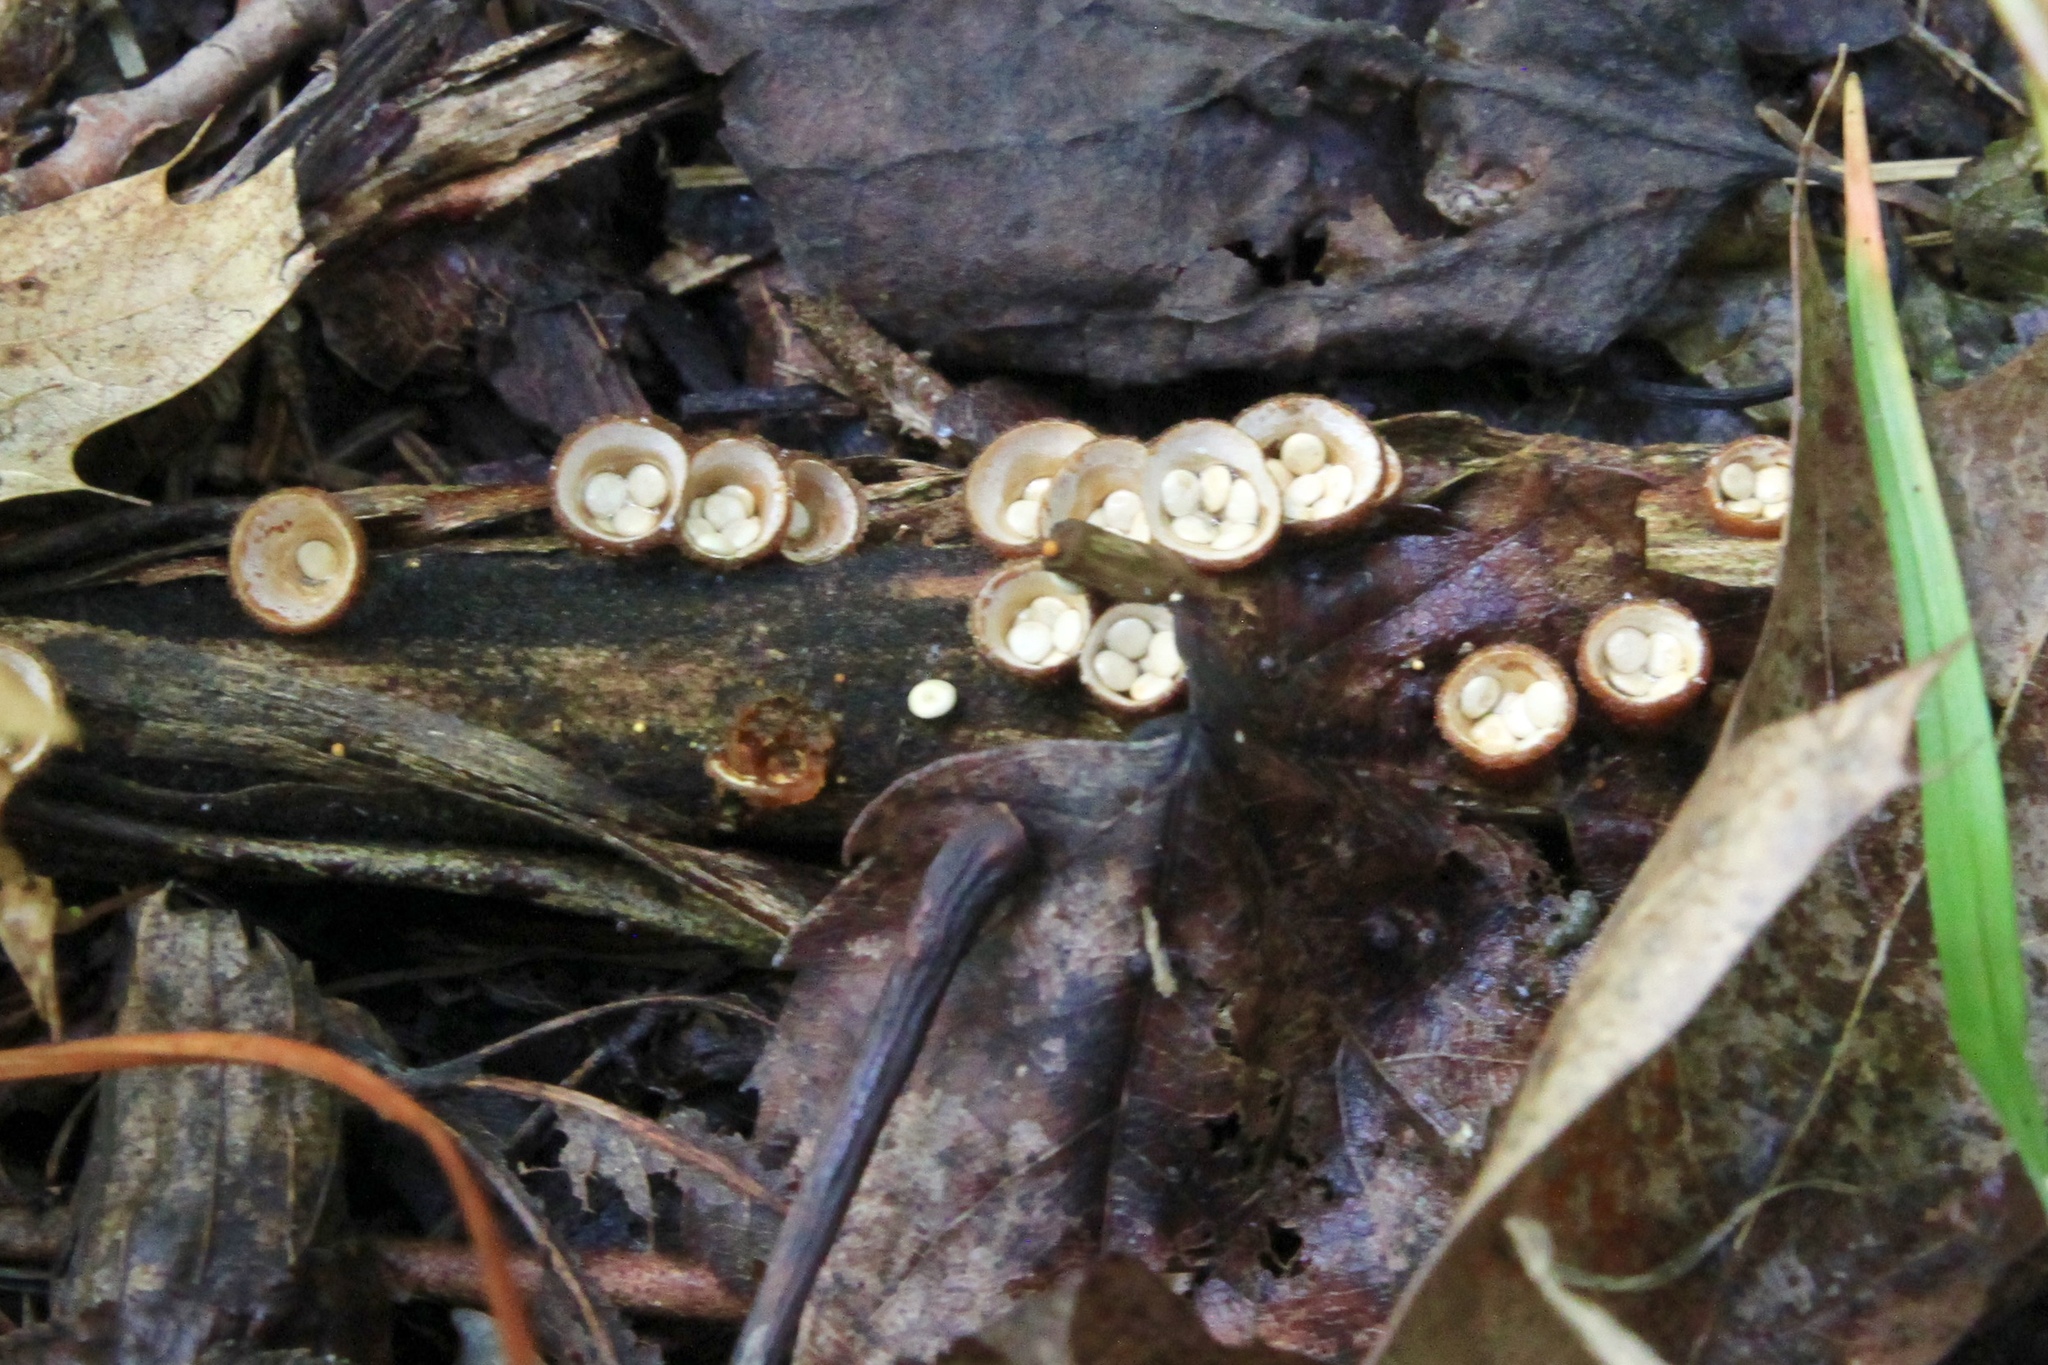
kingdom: Fungi
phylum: Basidiomycota
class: Agaricomycetes
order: Agaricales
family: Nidulariaceae
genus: Crucibulum
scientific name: Crucibulum laeve
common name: Common bird's nest
